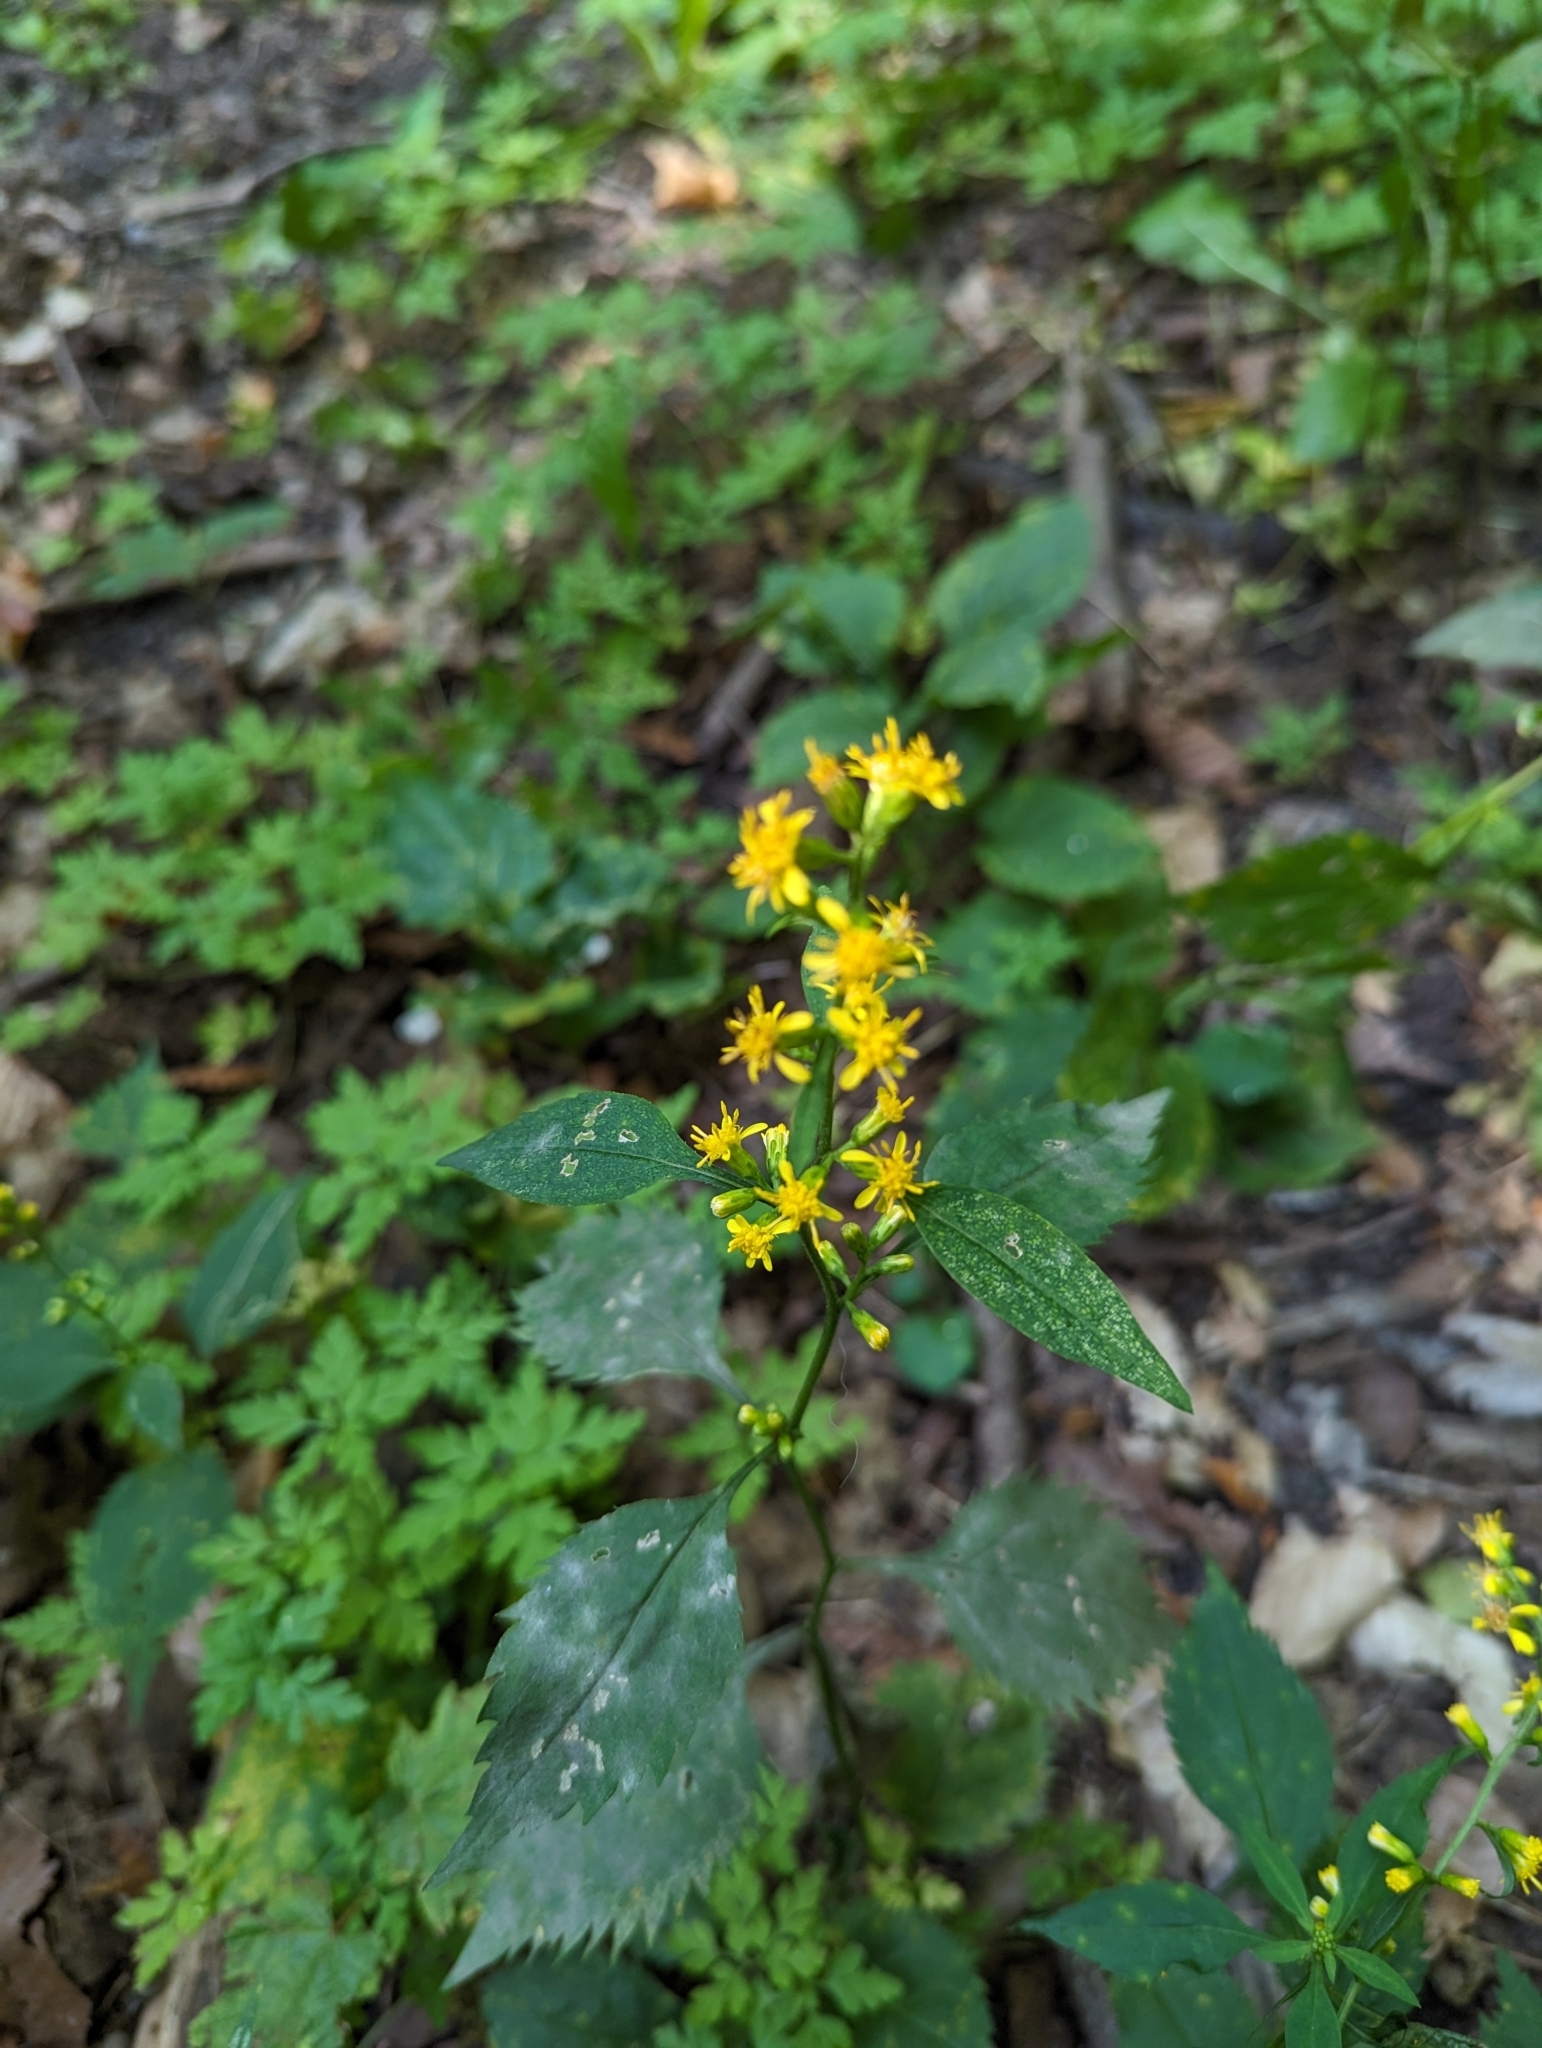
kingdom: Plantae
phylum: Tracheophyta
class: Magnoliopsida
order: Asterales
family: Asteraceae
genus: Solidago
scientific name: Solidago flexicaulis
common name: Zig-zag goldenrod
